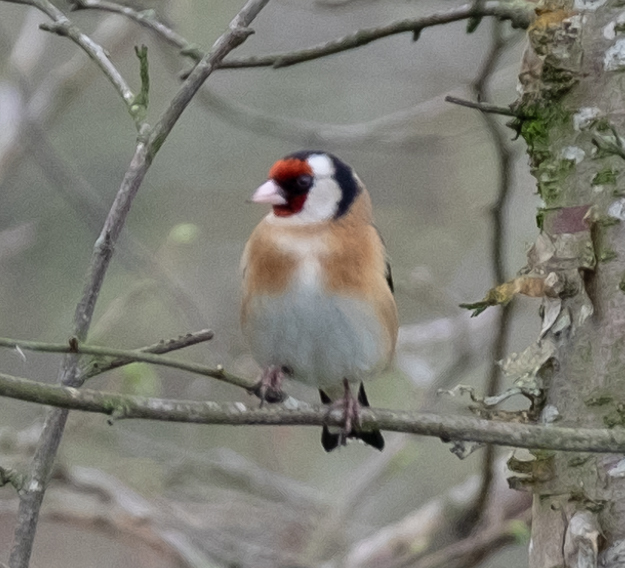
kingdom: Animalia
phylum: Chordata
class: Aves
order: Passeriformes
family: Fringillidae
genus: Carduelis
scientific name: Carduelis carduelis
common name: European goldfinch
